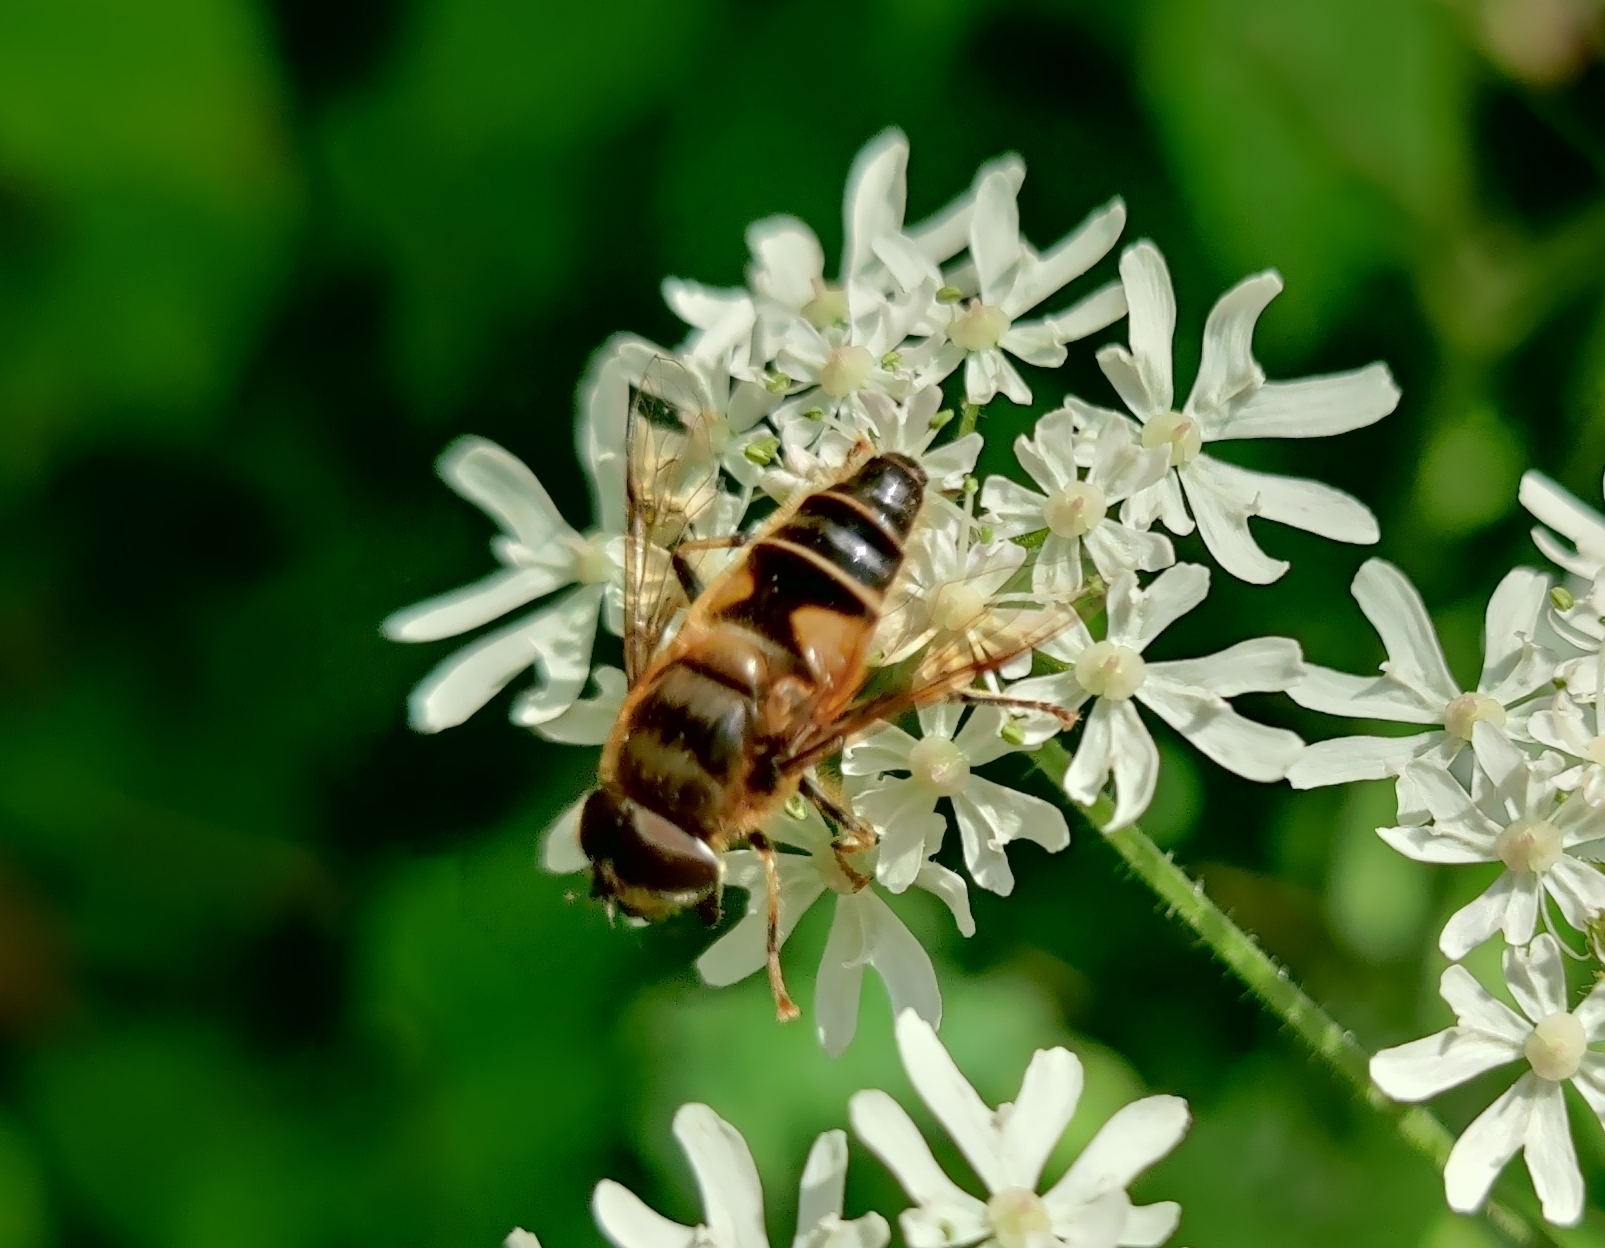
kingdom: Animalia
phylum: Arthropoda
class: Insecta
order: Diptera
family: Syrphidae
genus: Eristalis
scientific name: Eristalis pertinax
